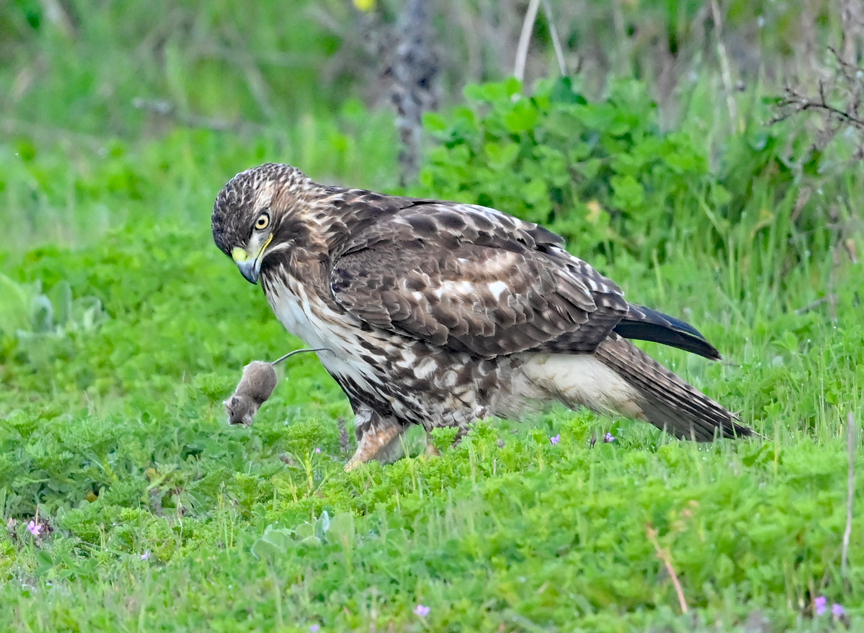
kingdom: Animalia
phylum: Chordata
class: Aves
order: Accipitriformes
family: Accipitridae
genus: Buteo
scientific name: Buteo jamaicensis
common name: Red-tailed hawk
